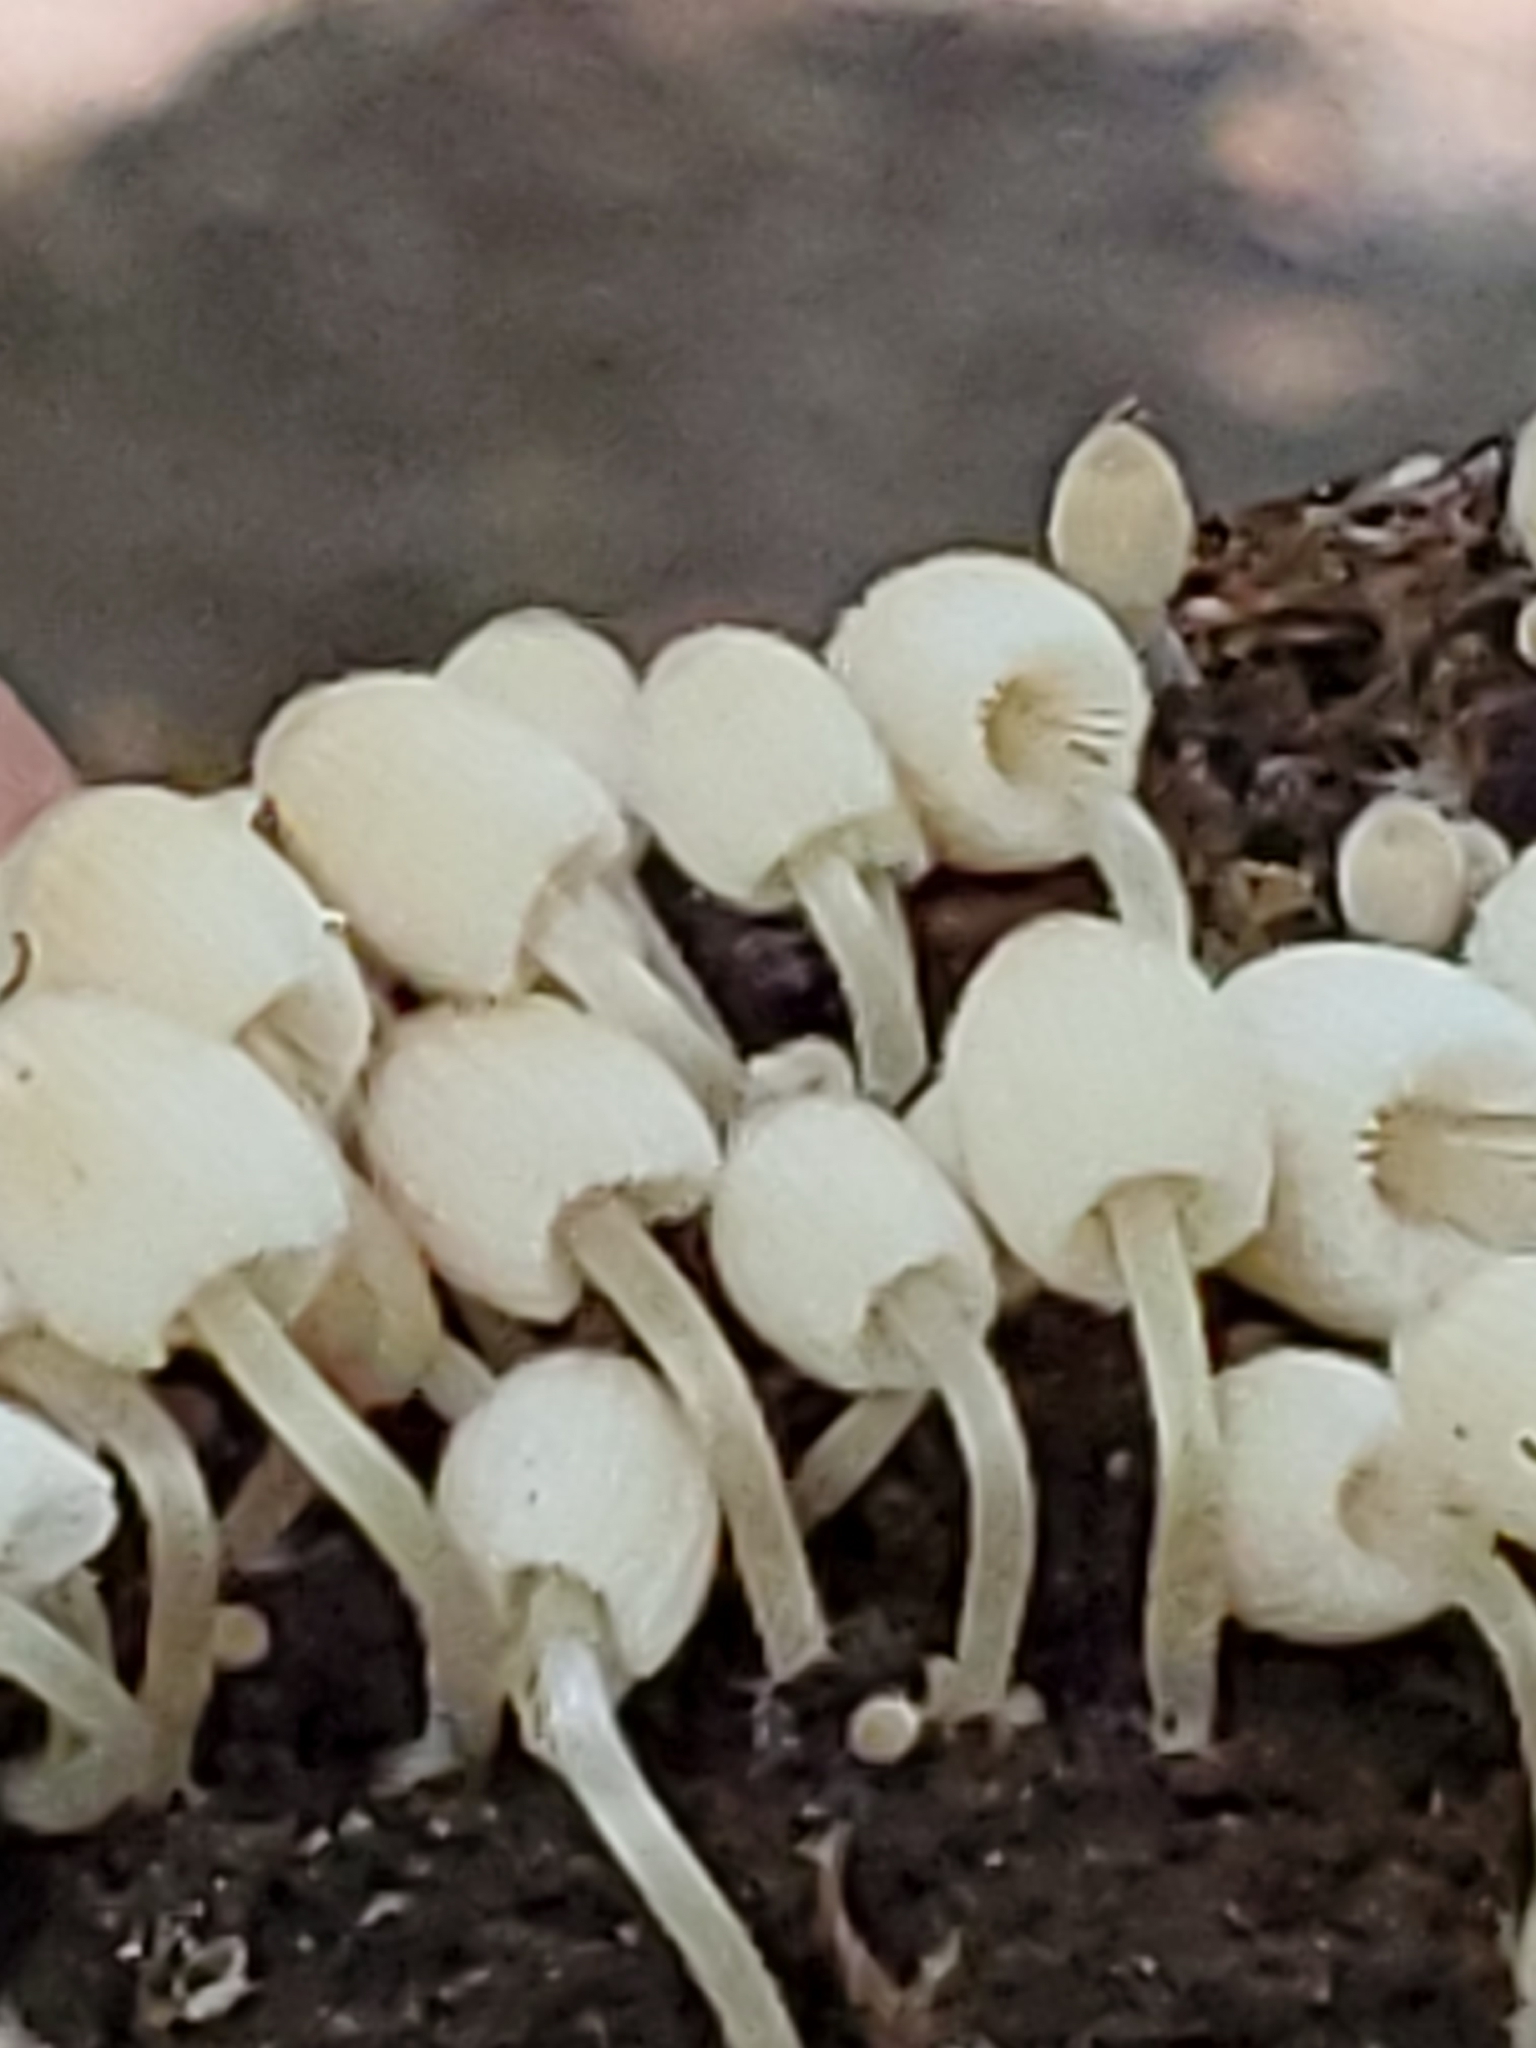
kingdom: Fungi
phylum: Basidiomycota
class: Agaricomycetes
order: Agaricales
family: Psathyrellaceae
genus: Coprinellus
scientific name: Coprinellus disseminatus
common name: Fairies' bonnets
